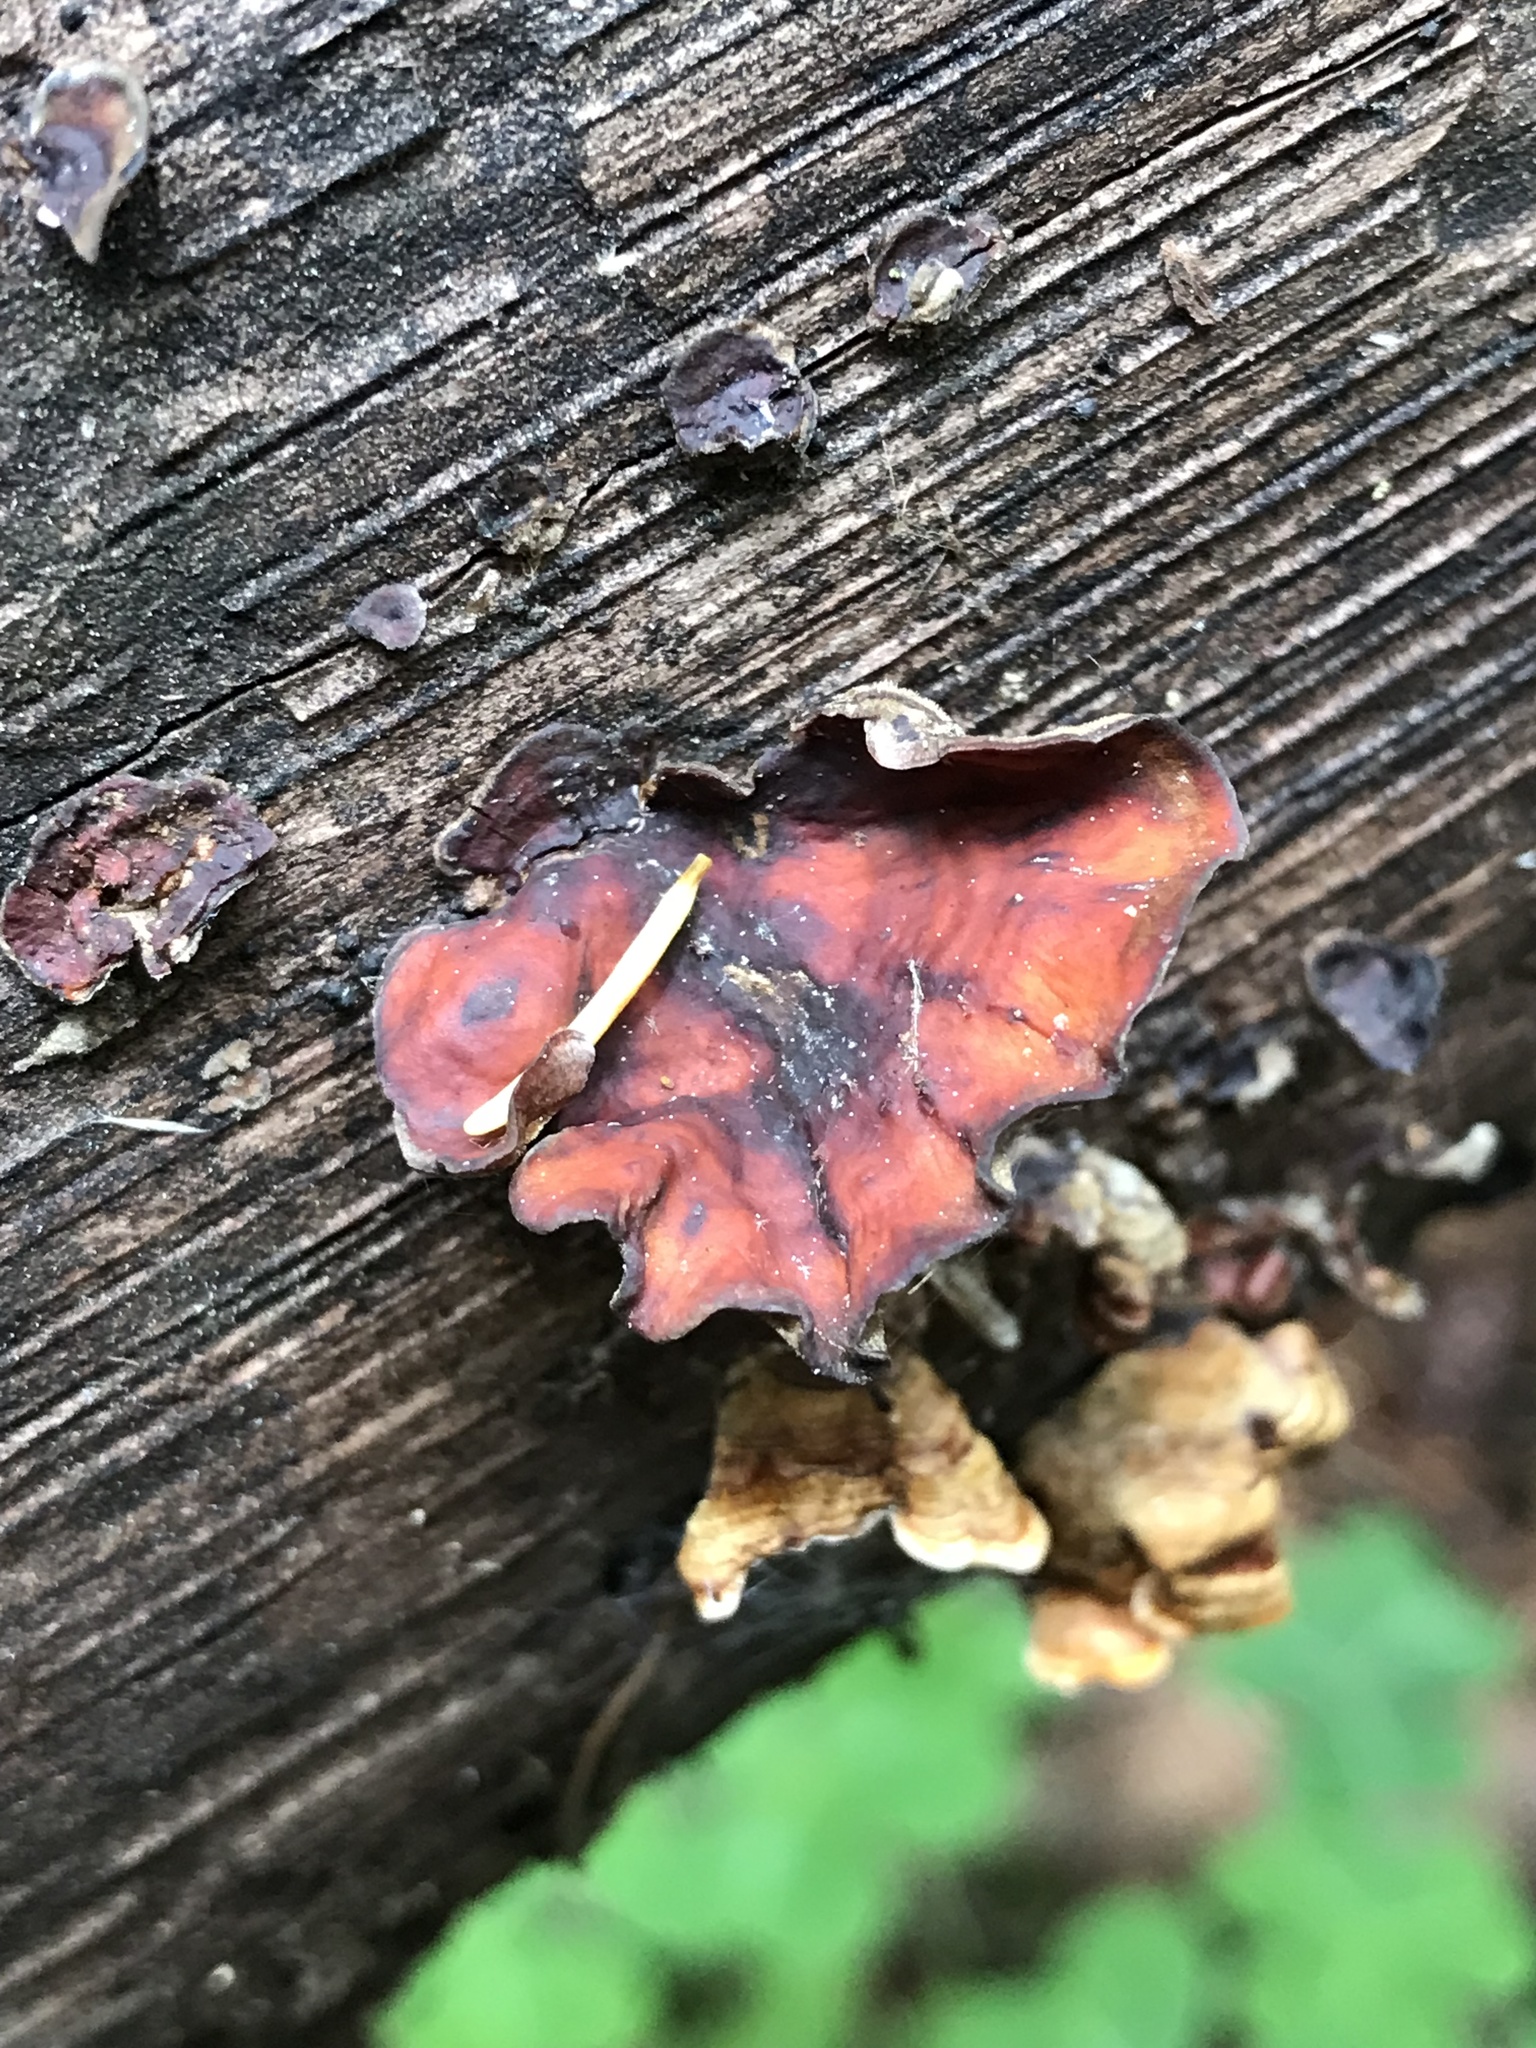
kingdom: Fungi
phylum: Basidiomycota
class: Agaricomycetes
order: Russulales
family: Stereaceae
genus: Stereum
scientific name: Stereum hirsutum
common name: Hairy curtain crust
